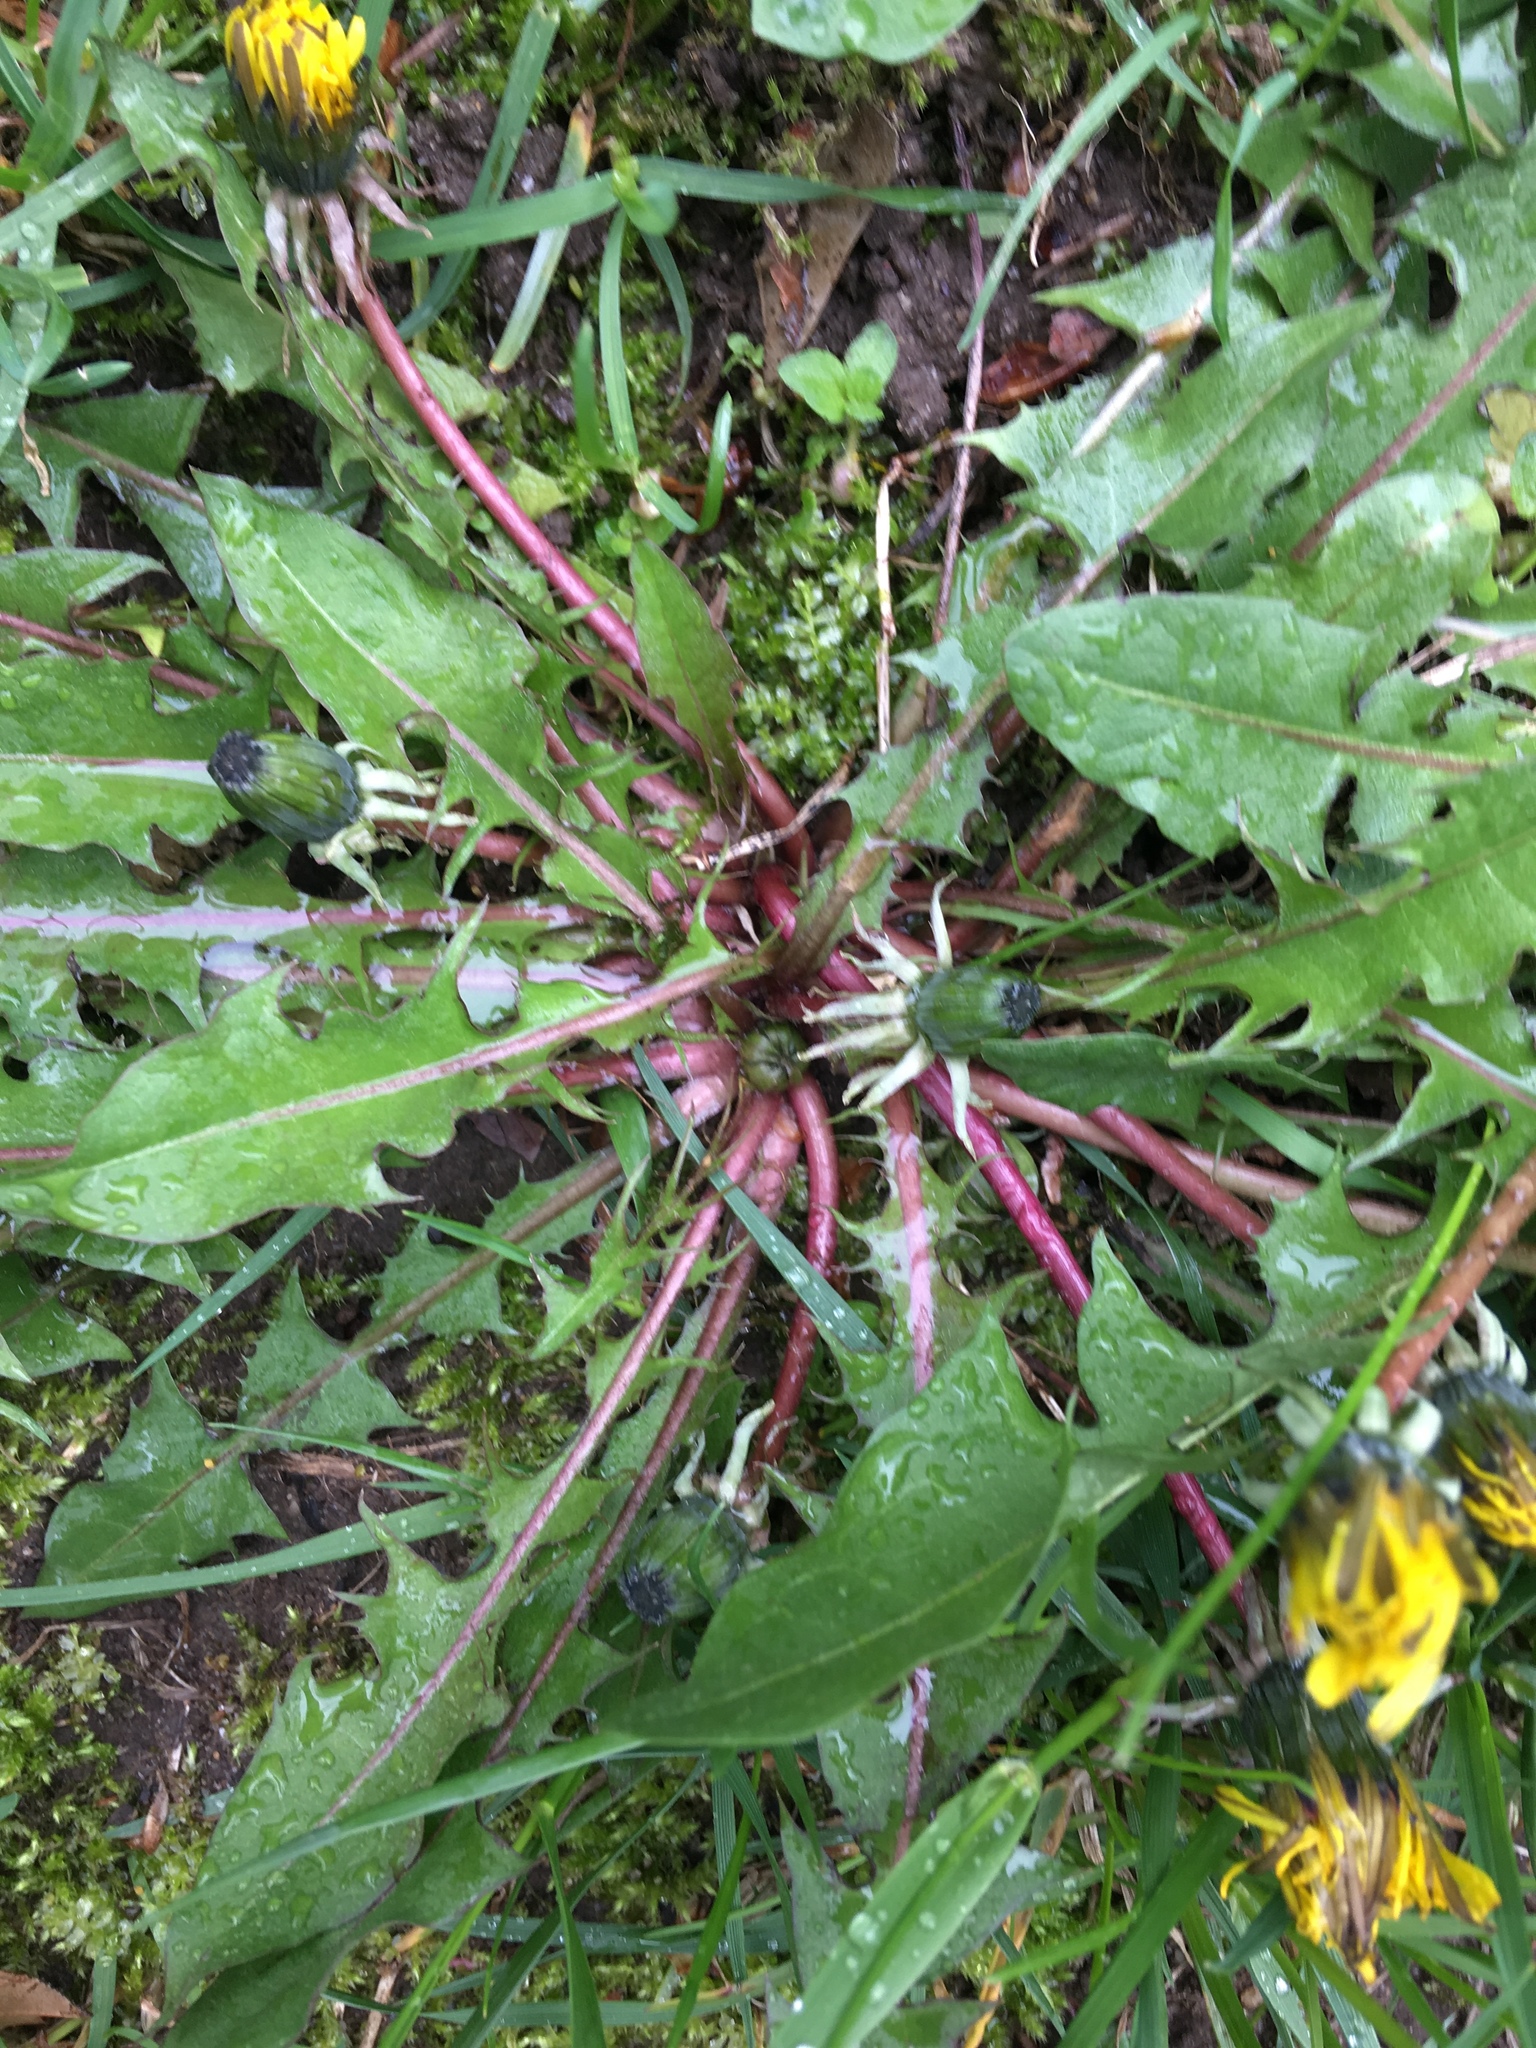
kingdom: Plantae
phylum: Tracheophyta
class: Magnoliopsida
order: Asterales
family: Asteraceae
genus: Taraxacum
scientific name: Taraxacum officinale
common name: Common dandelion
